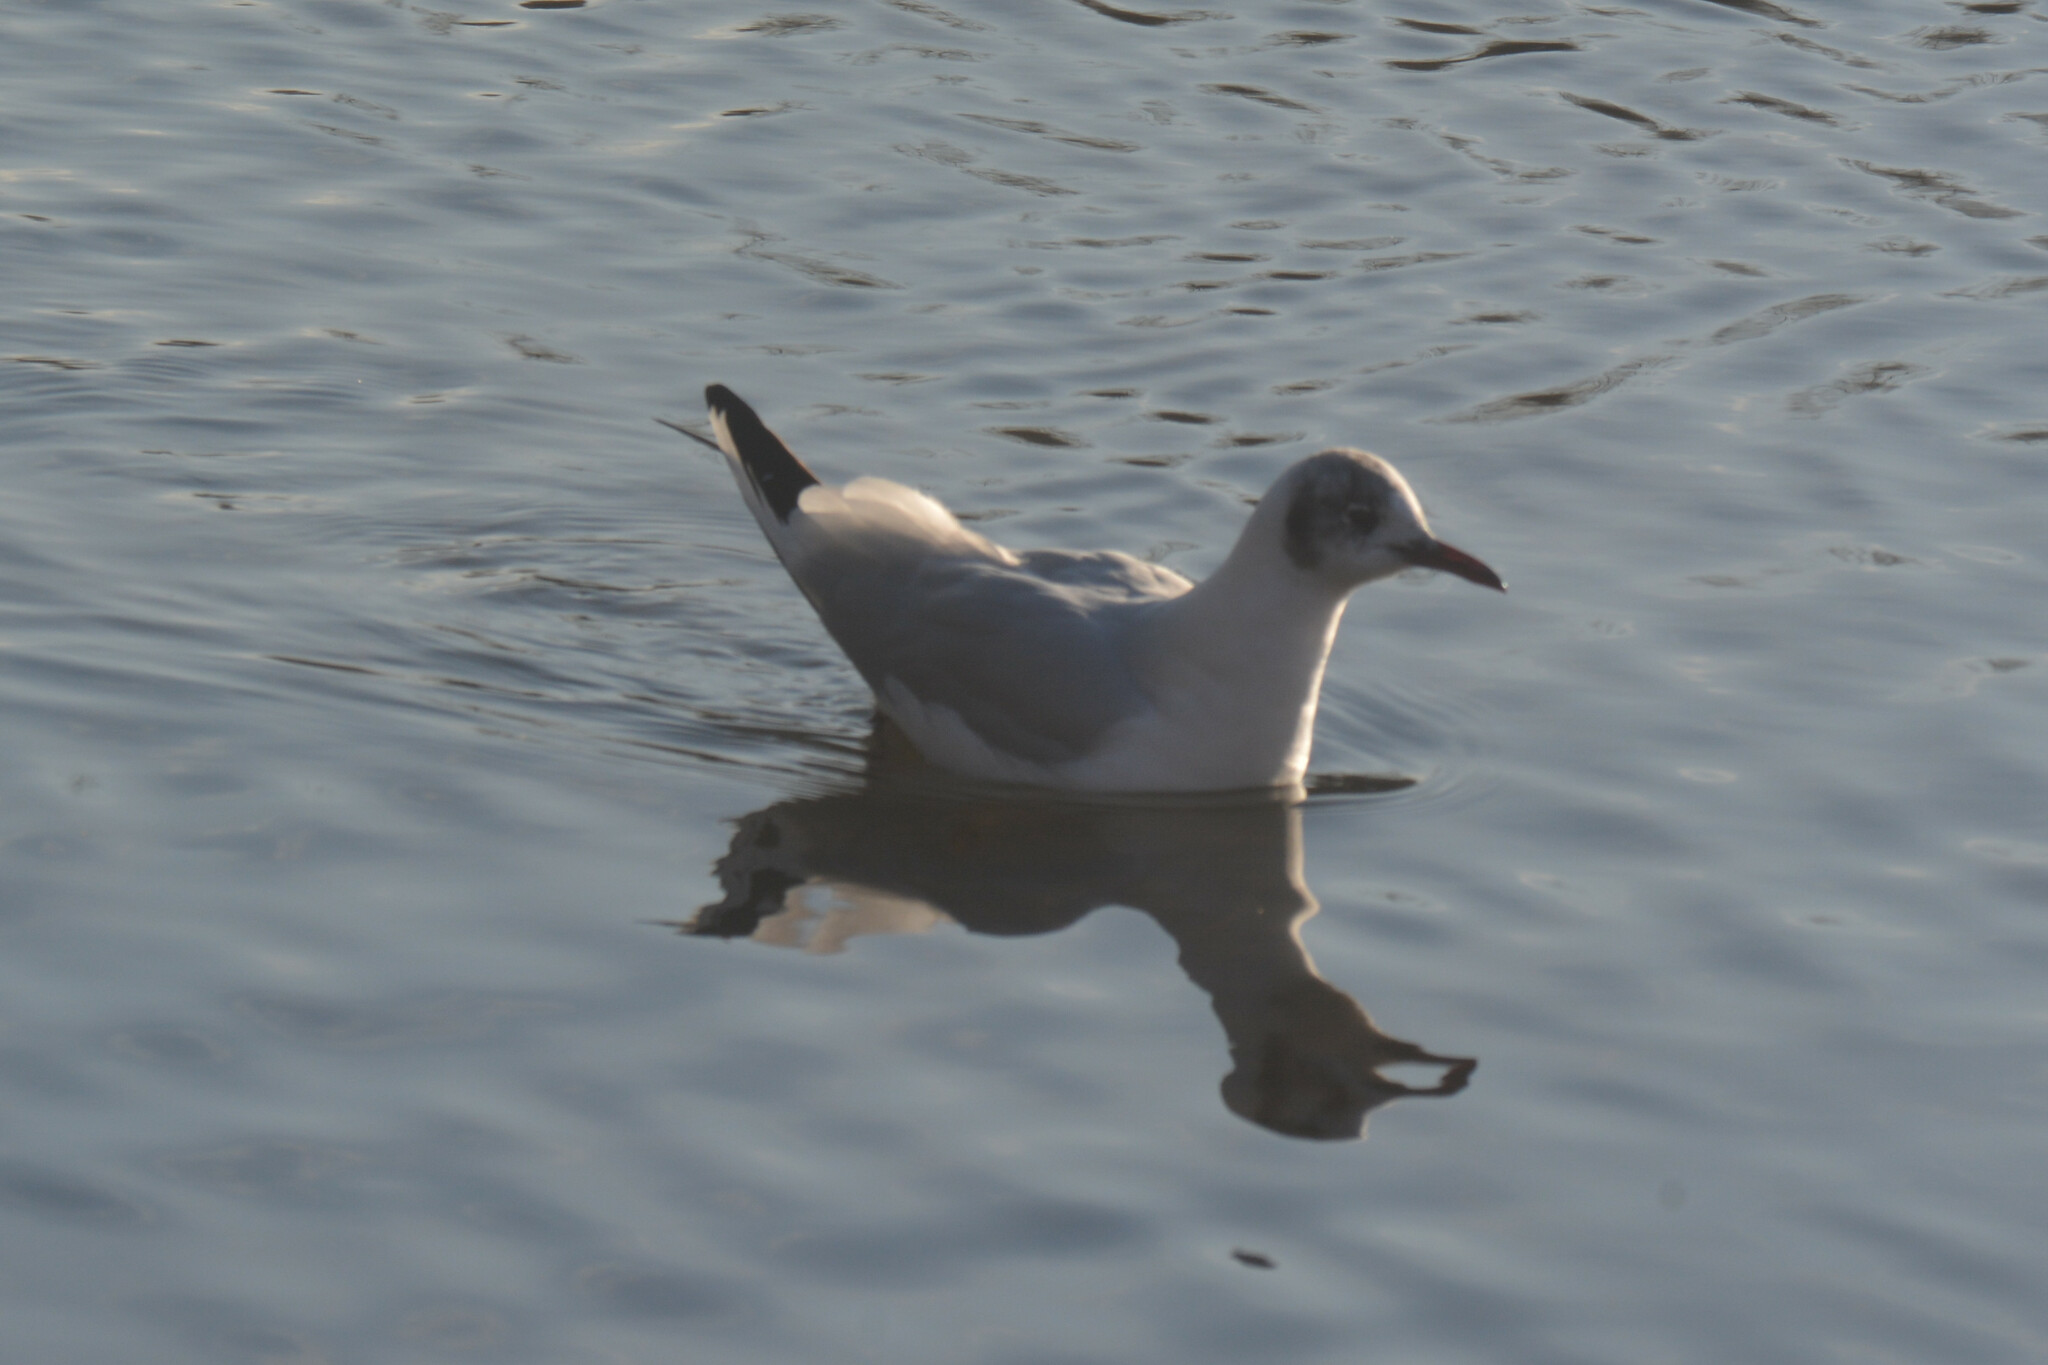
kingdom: Animalia
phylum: Chordata
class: Aves
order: Charadriiformes
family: Laridae
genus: Chroicocephalus
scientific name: Chroicocephalus ridibundus
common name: Black-headed gull
